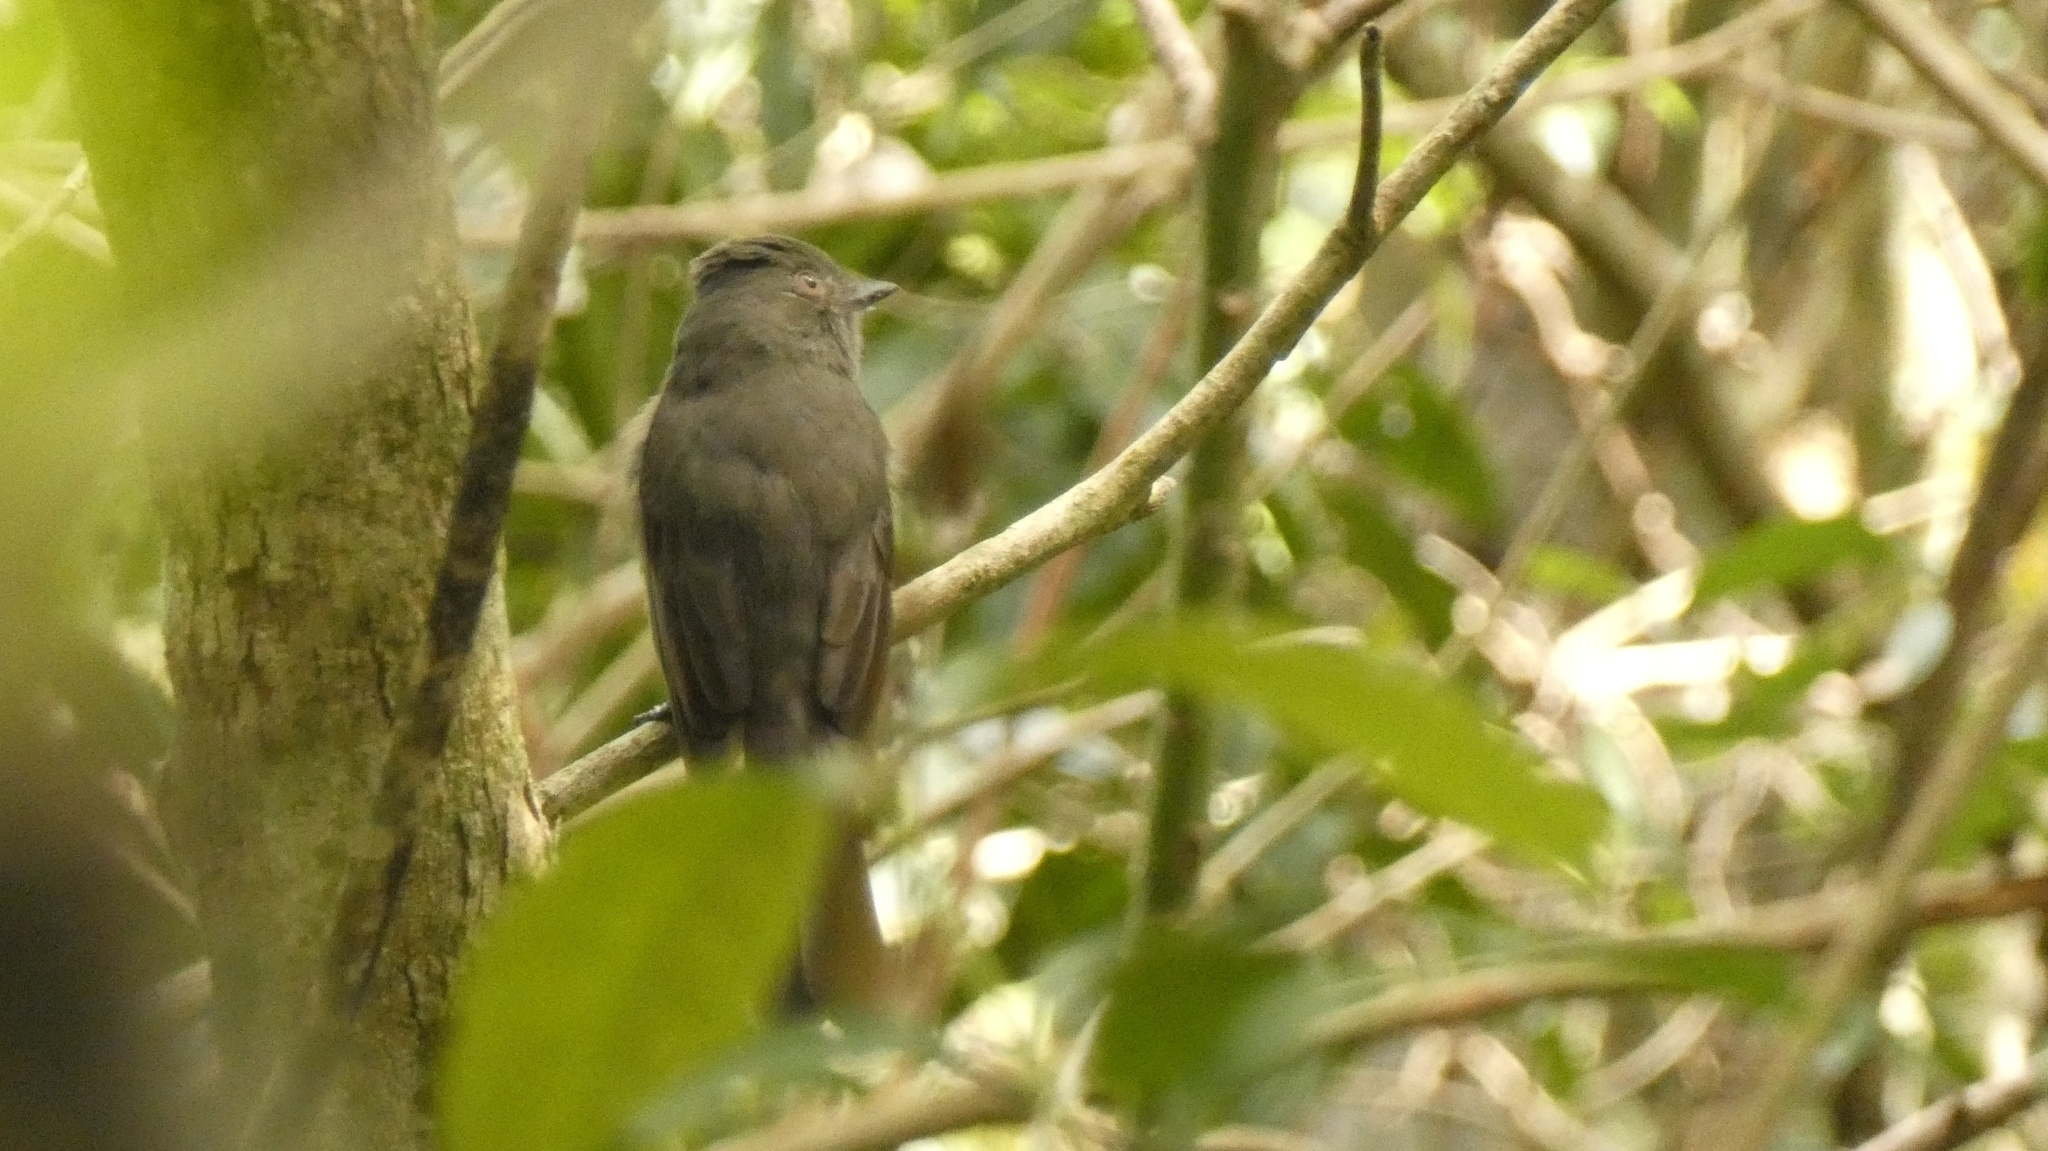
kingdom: Animalia
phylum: Chordata
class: Aves
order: Passeriformes
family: Tyrannidae
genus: Rhytipterna
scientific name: Rhytipterna simplex
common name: Greyish mourner
